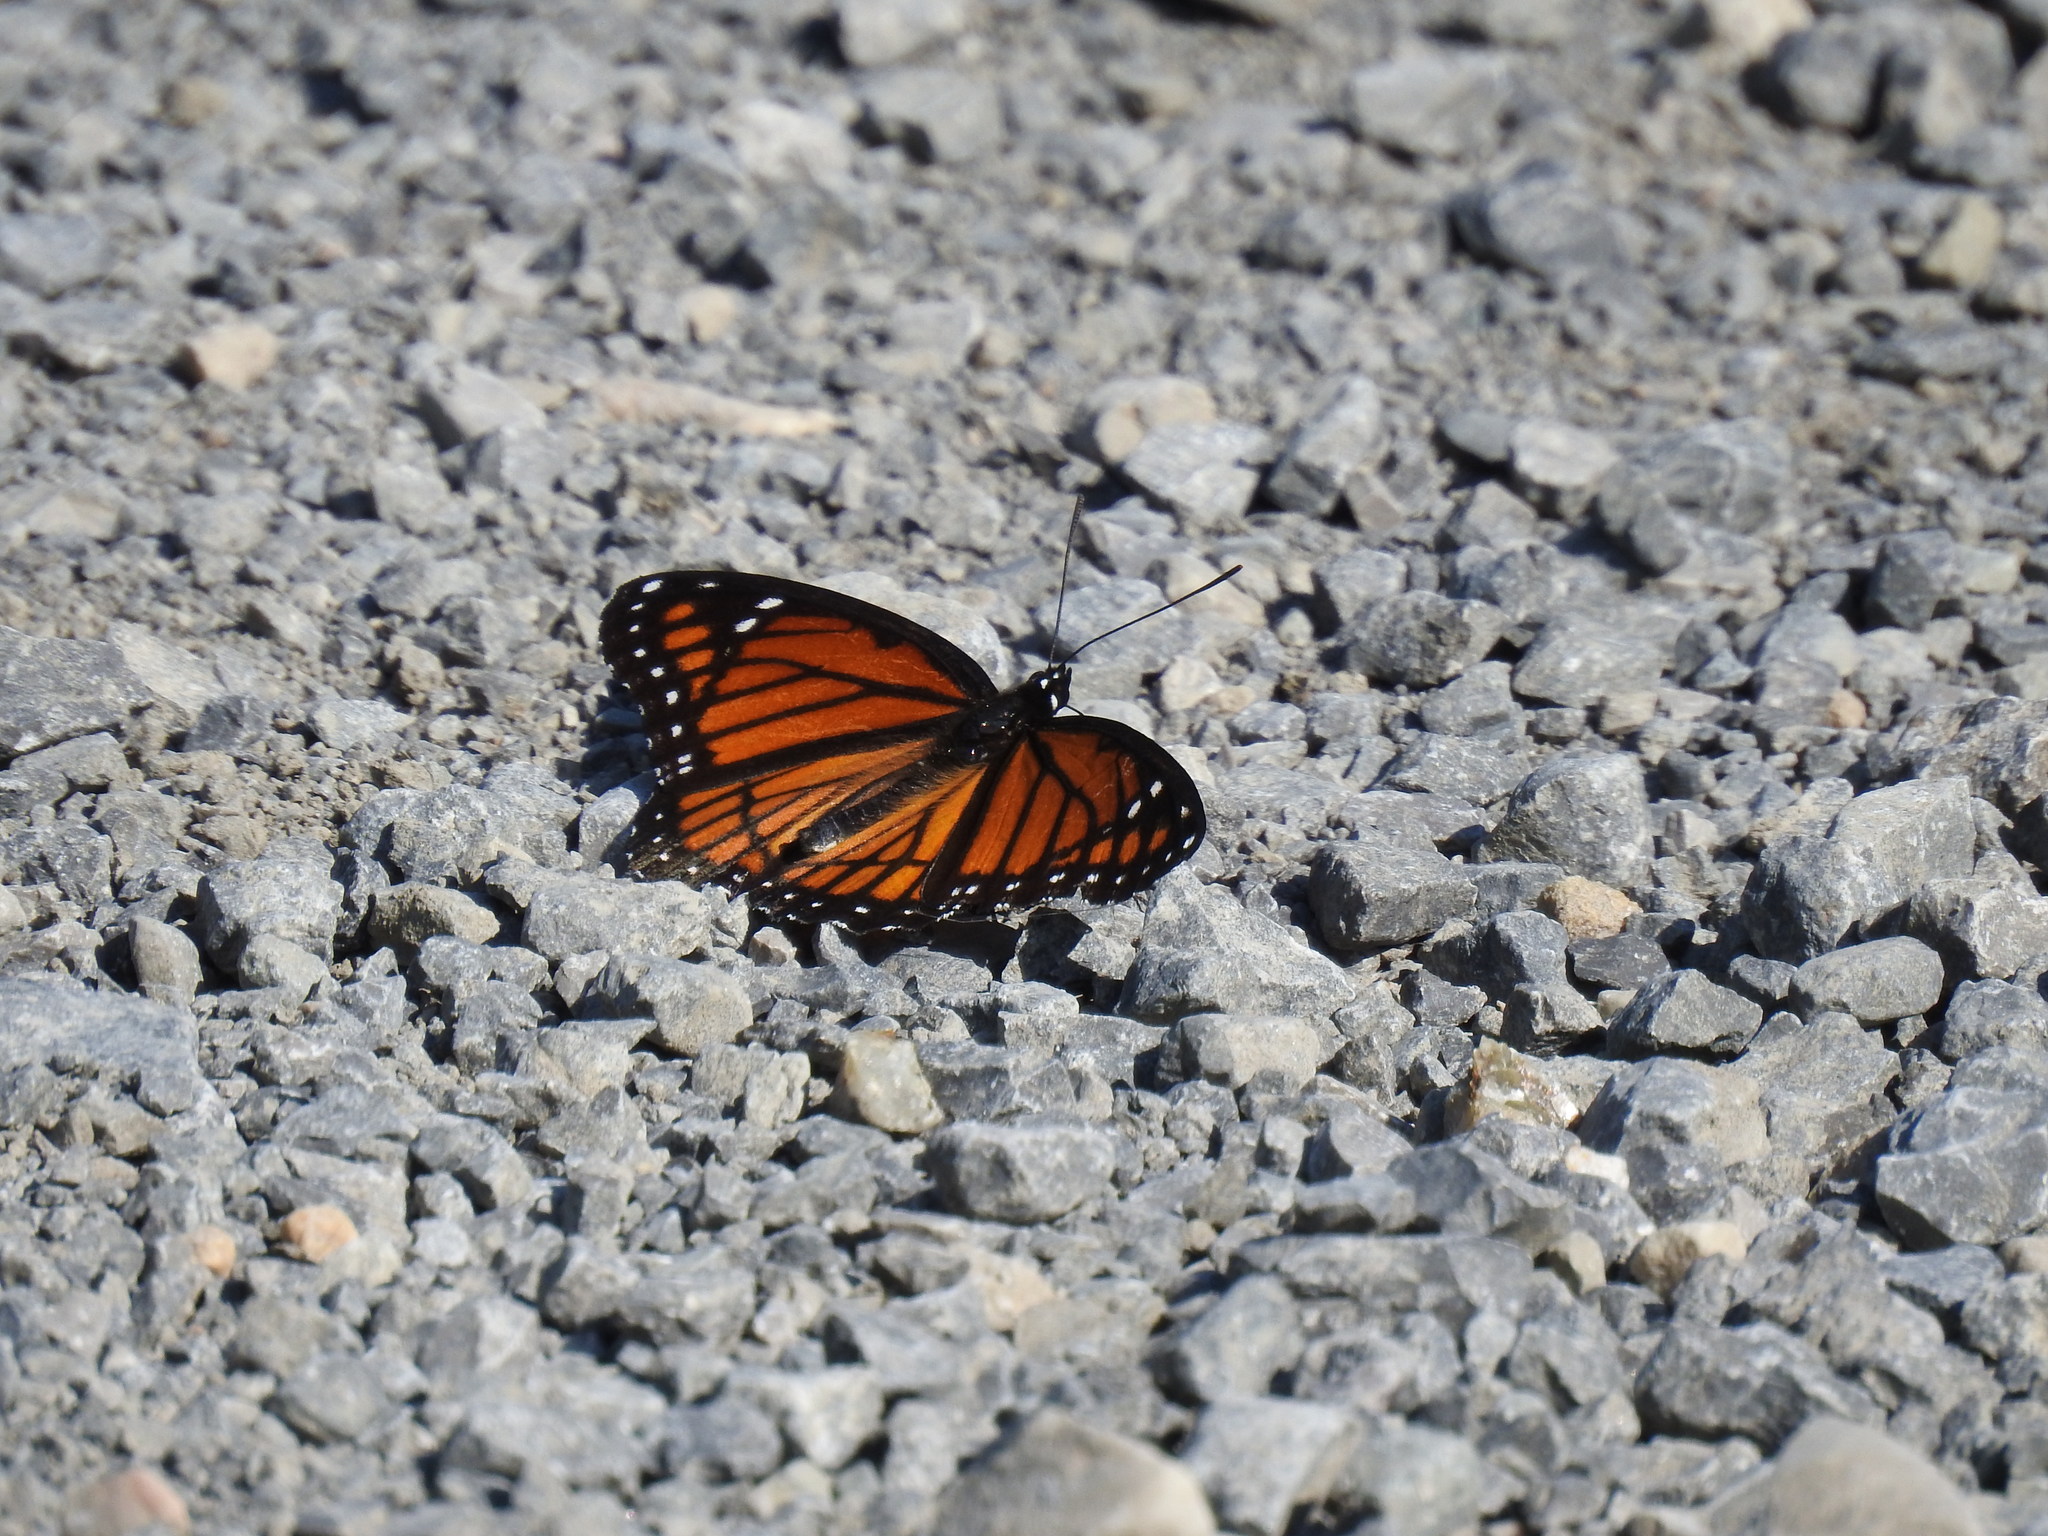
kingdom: Animalia
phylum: Arthropoda
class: Insecta
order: Lepidoptera
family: Nymphalidae
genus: Limenitis
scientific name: Limenitis archippus
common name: Viceroy
